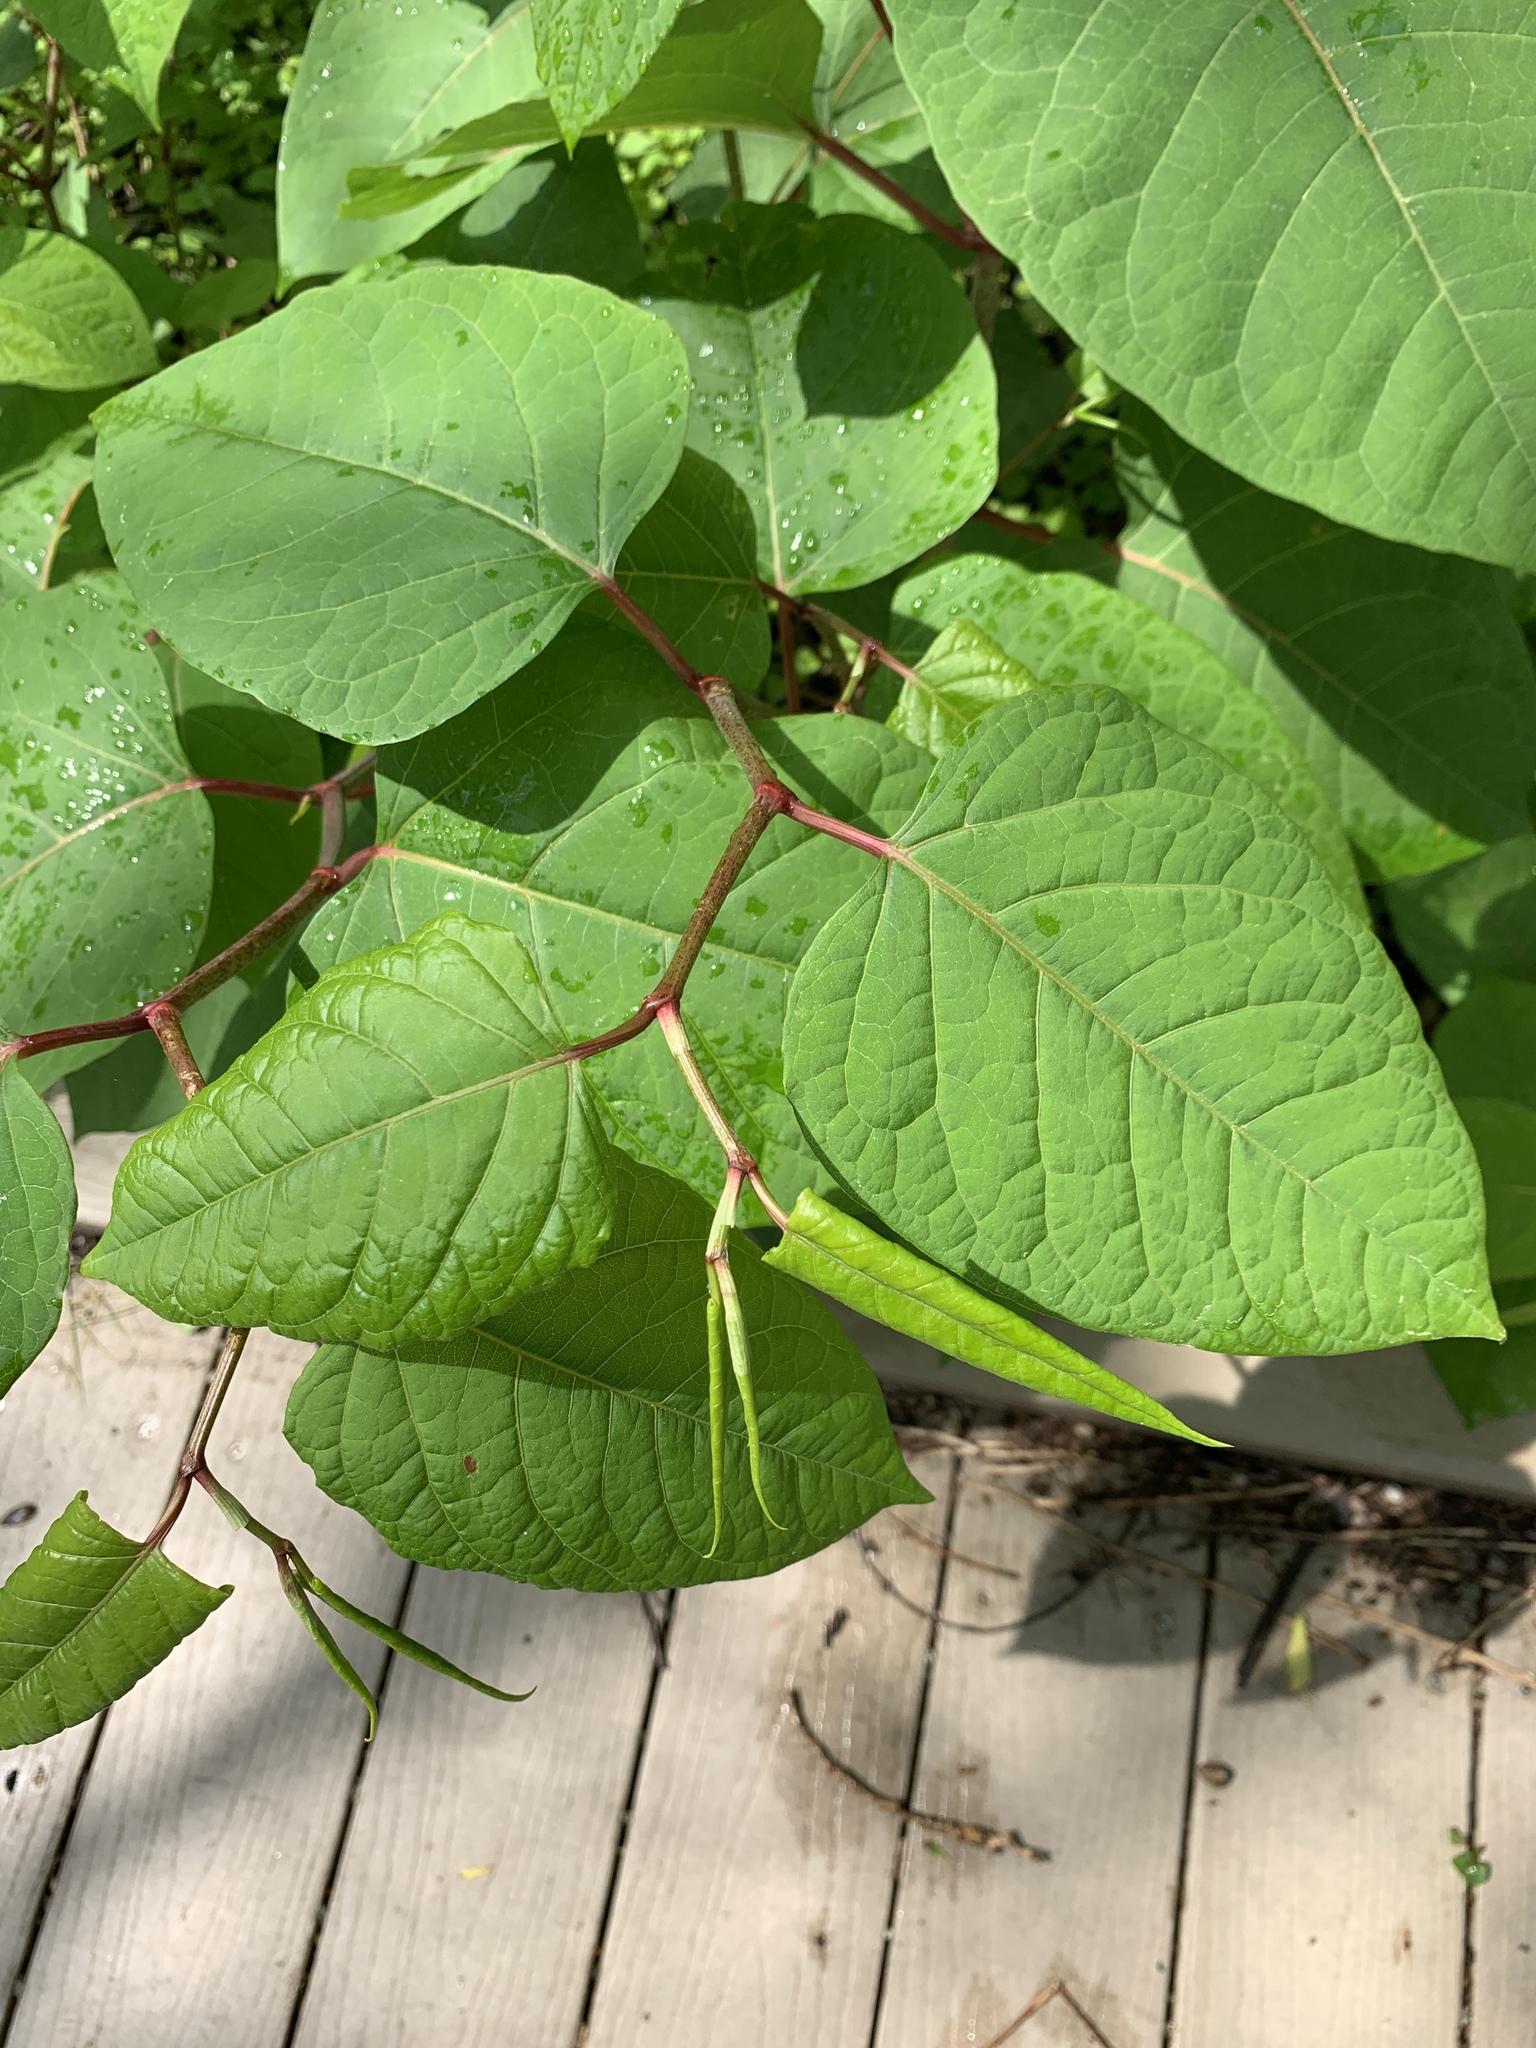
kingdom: Plantae
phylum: Tracheophyta
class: Magnoliopsida
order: Caryophyllales
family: Polygonaceae
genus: Reynoutria
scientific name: Reynoutria japonica
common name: Japanese knotweed
